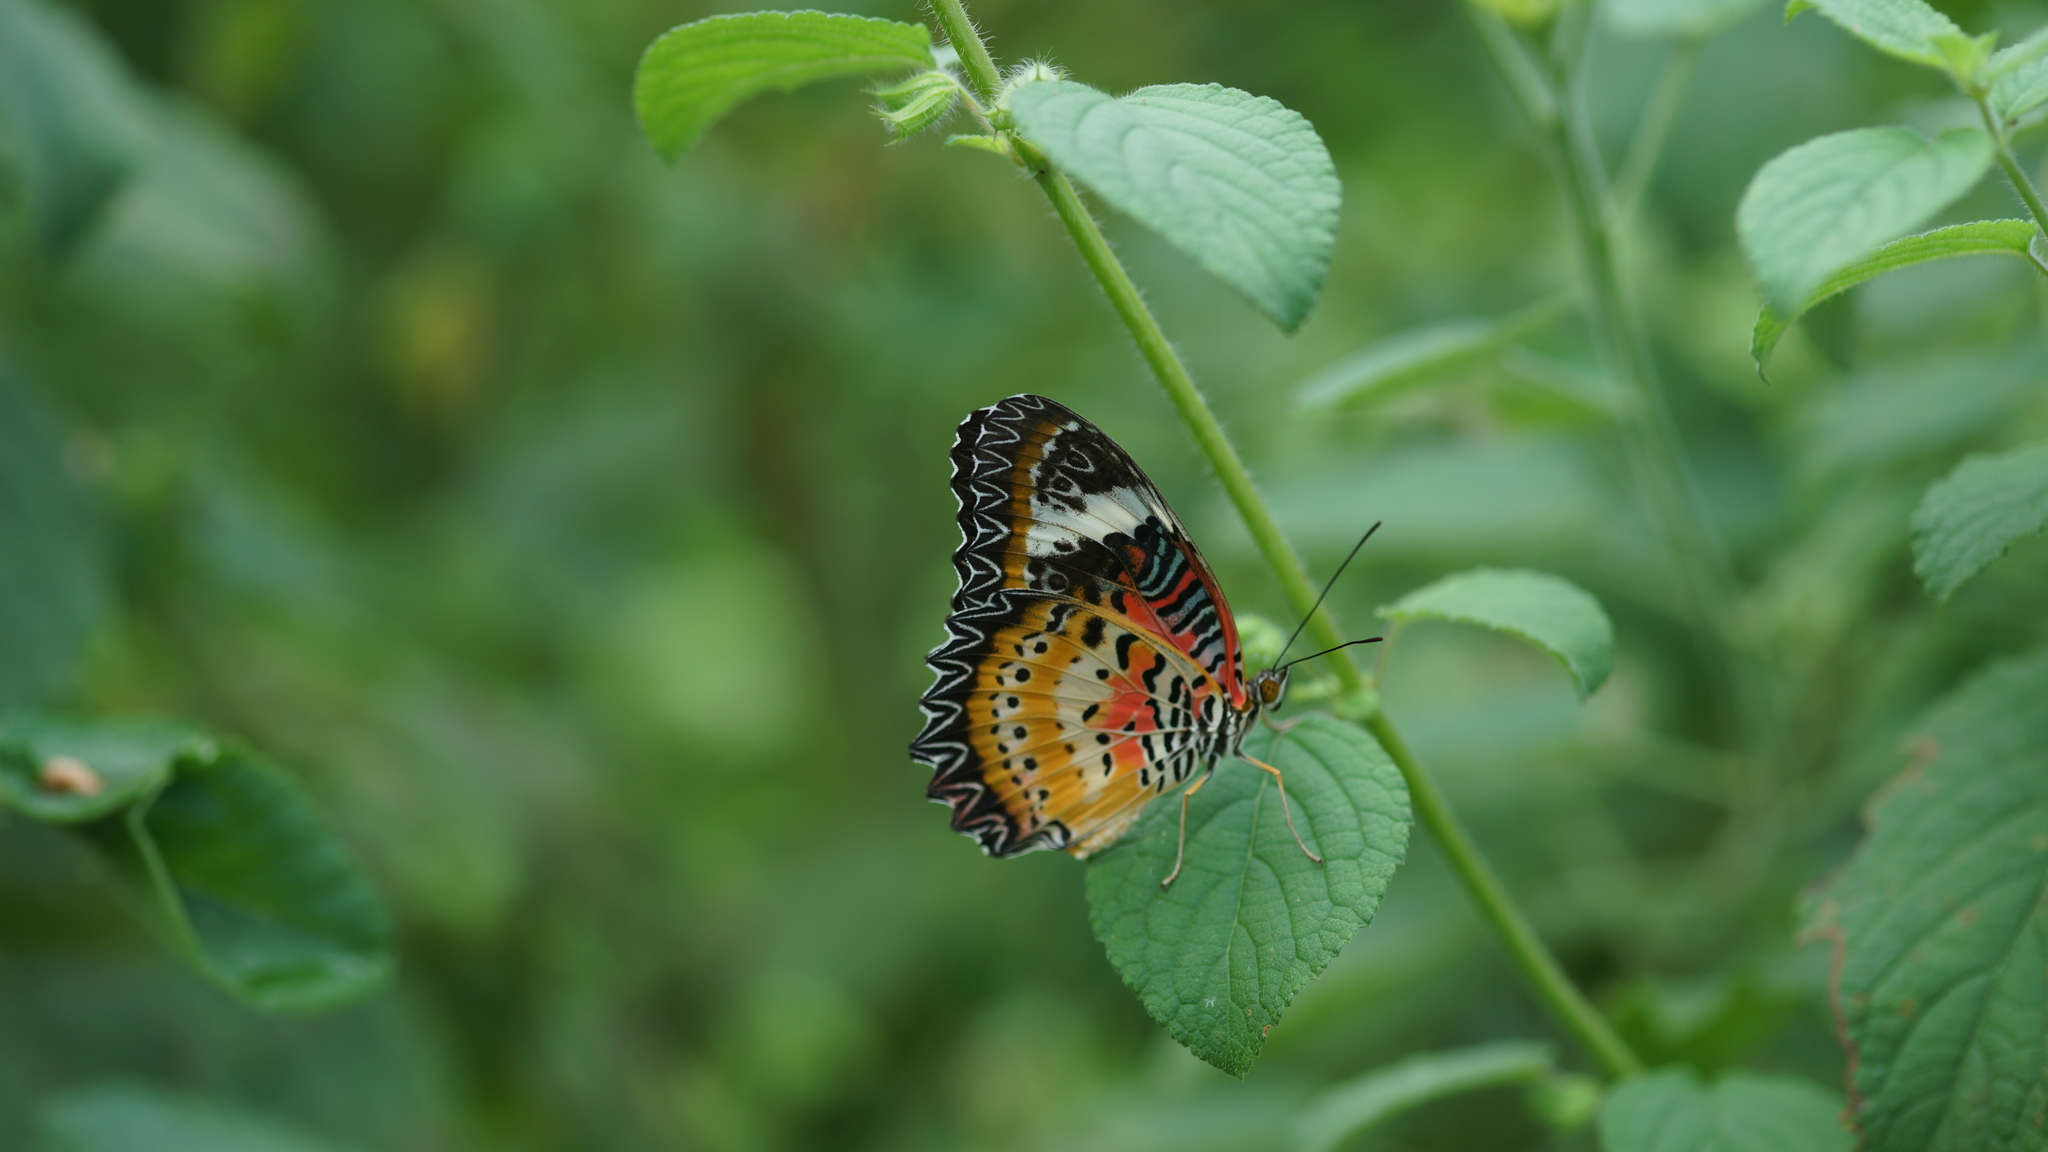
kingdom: Animalia
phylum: Arthropoda
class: Insecta
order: Lepidoptera
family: Nymphalidae
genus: Cethosia
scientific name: Cethosia cyane
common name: Leopard lacewing butterfly
